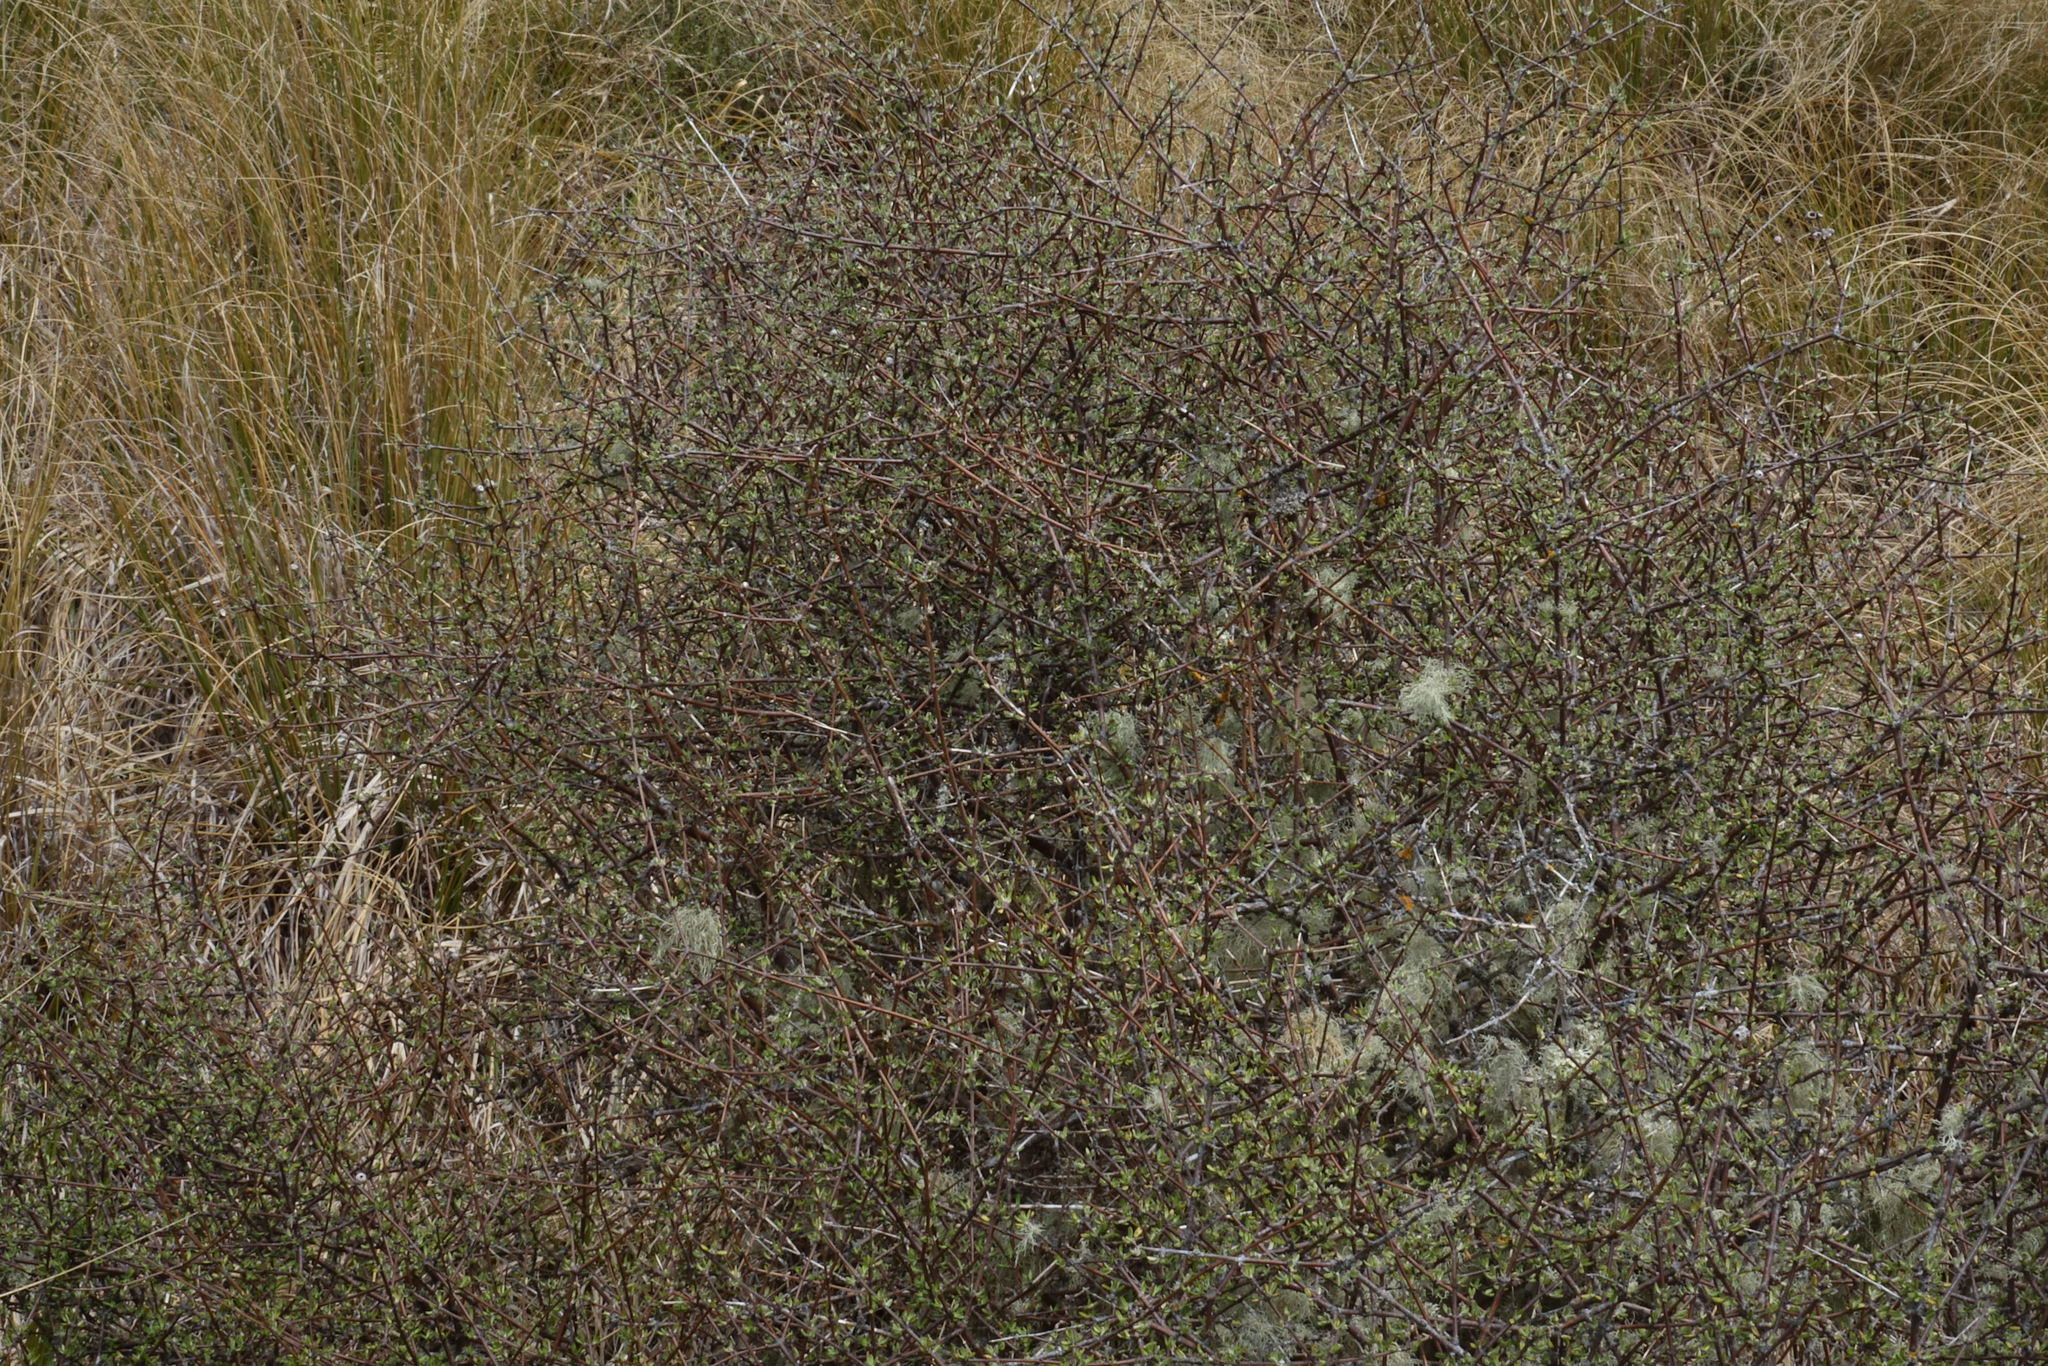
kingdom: Plantae
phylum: Tracheophyta
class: Magnoliopsida
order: Asterales
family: Asteraceae
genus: Olearia
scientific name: Olearia bullata
